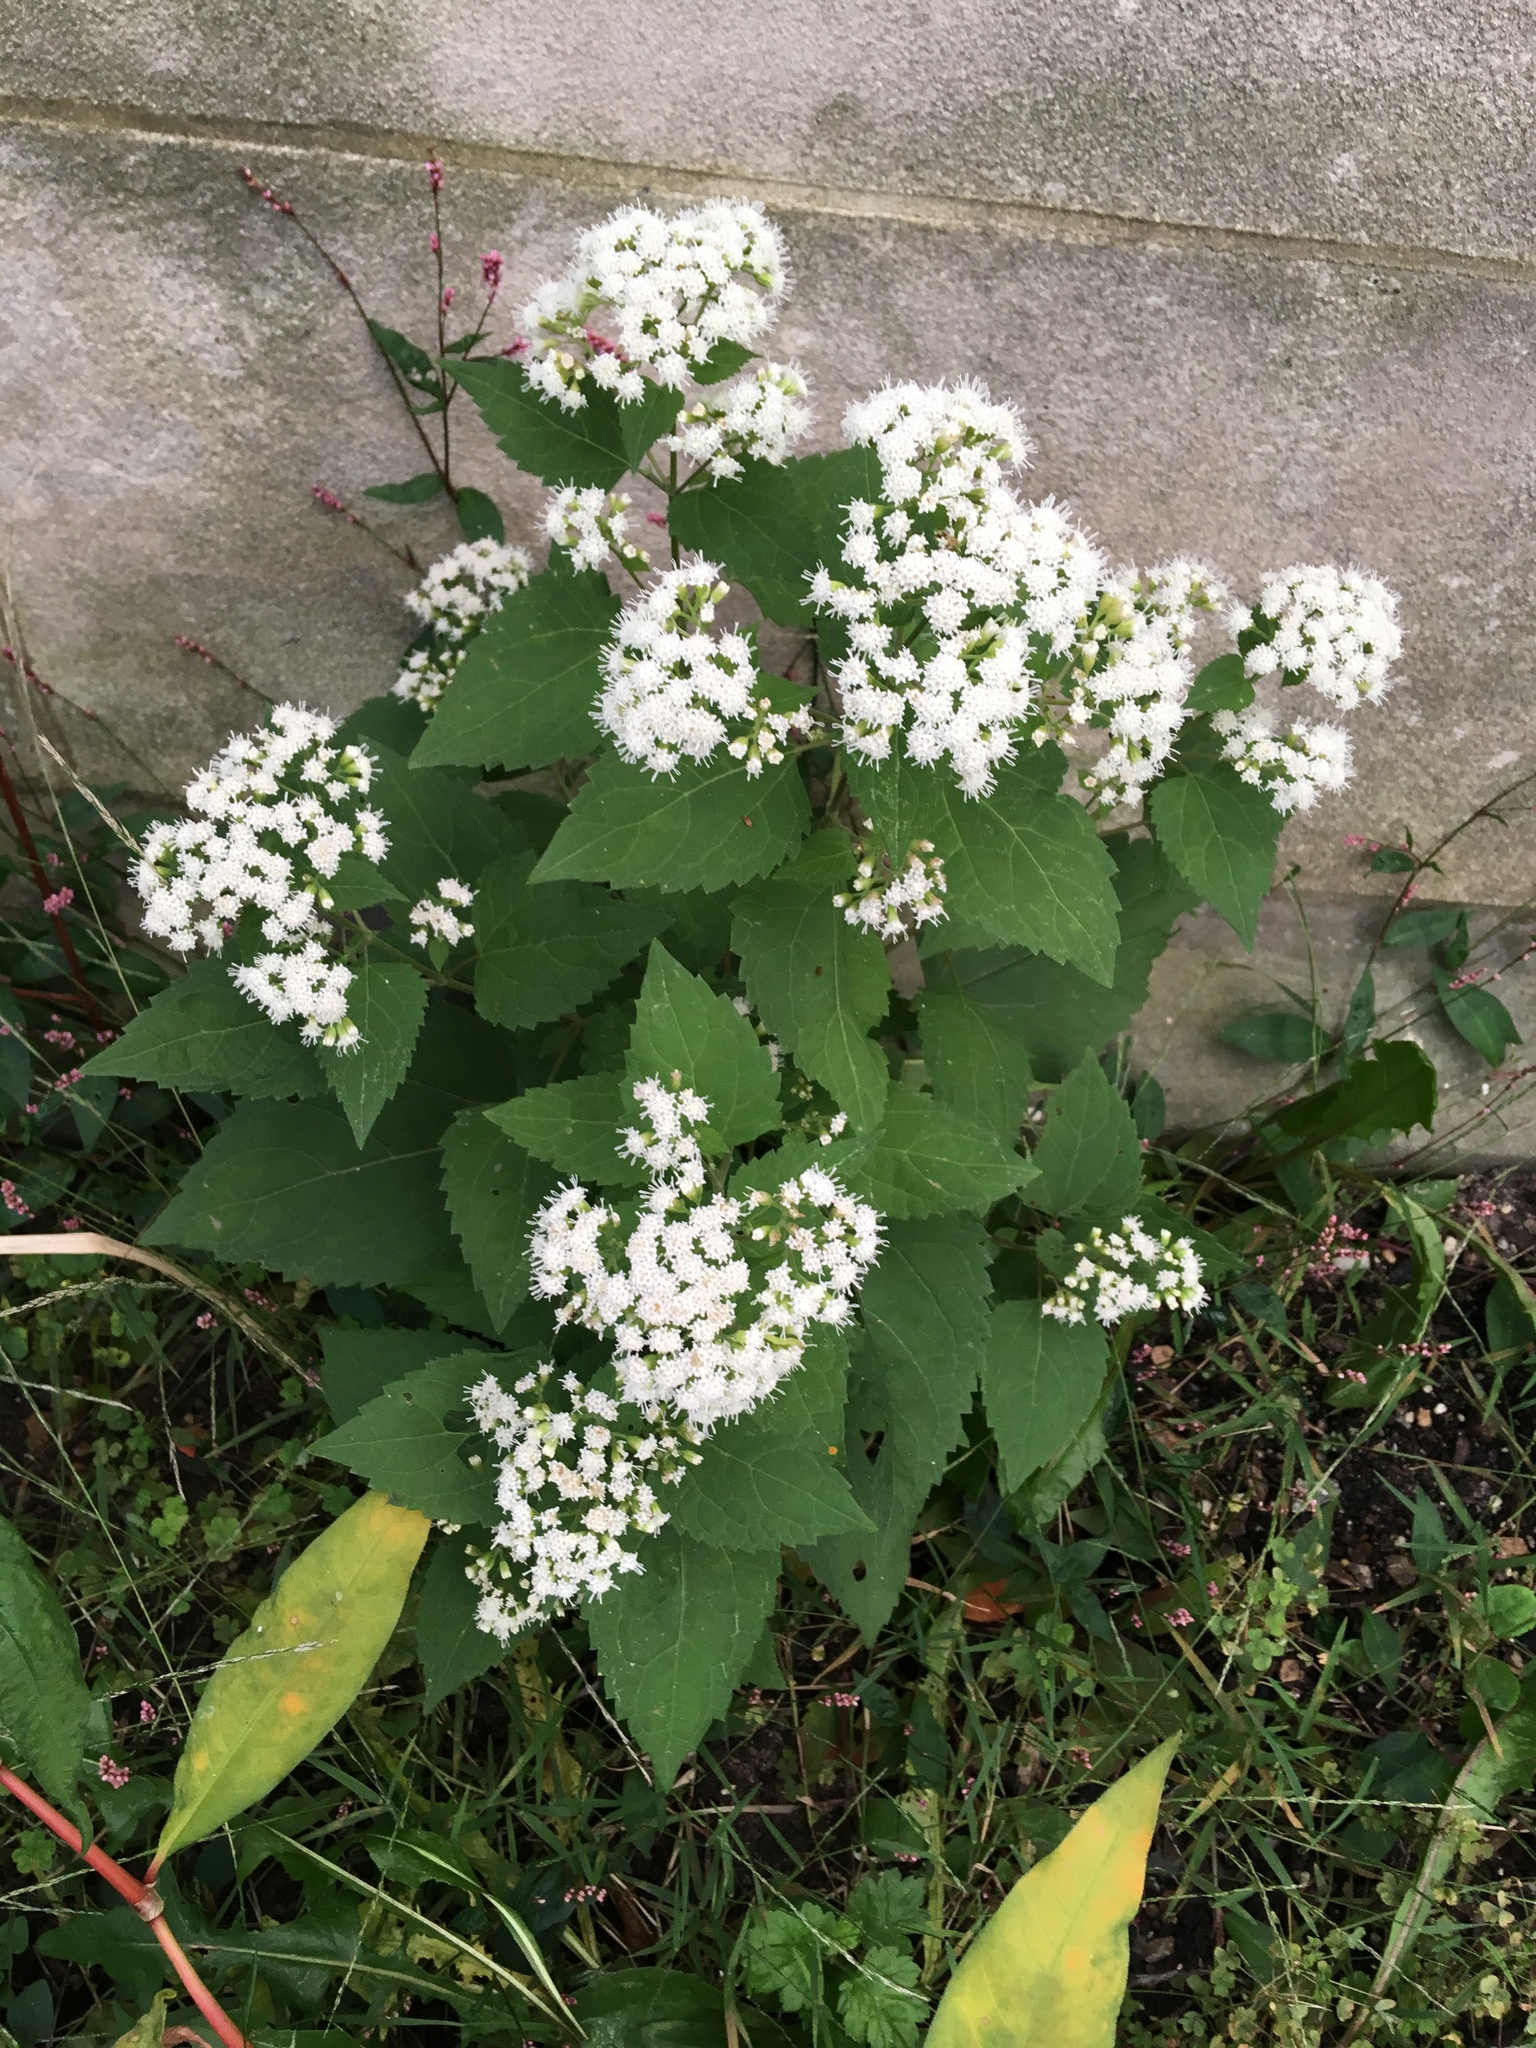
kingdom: Plantae
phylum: Tracheophyta
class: Magnoliopsida
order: Asterales
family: Asteraceae
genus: Ageratina
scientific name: Ageratina altissima
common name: White snakeroot
